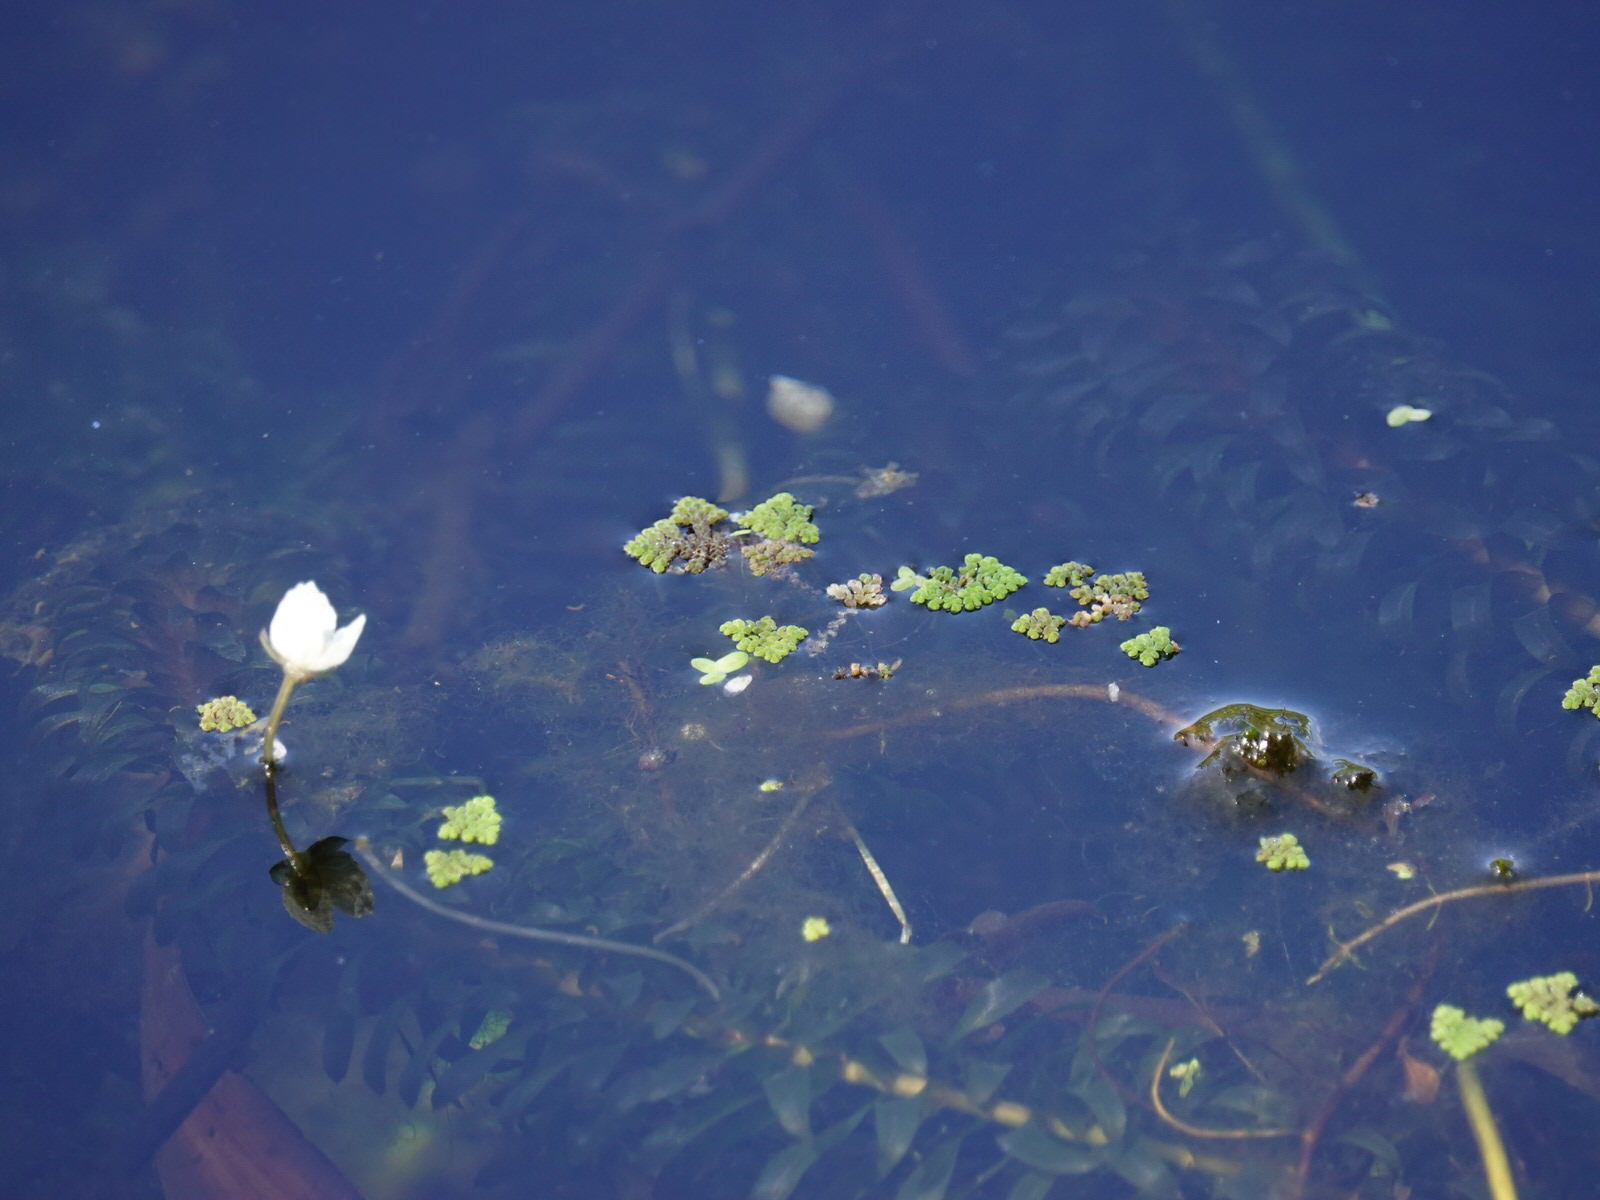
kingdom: Plantae
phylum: Tracheophyta
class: Polypodiopsida
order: Salviniales
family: Salviniaceae
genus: Azolla
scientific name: Azolla pinnata
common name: Ferny azolla
